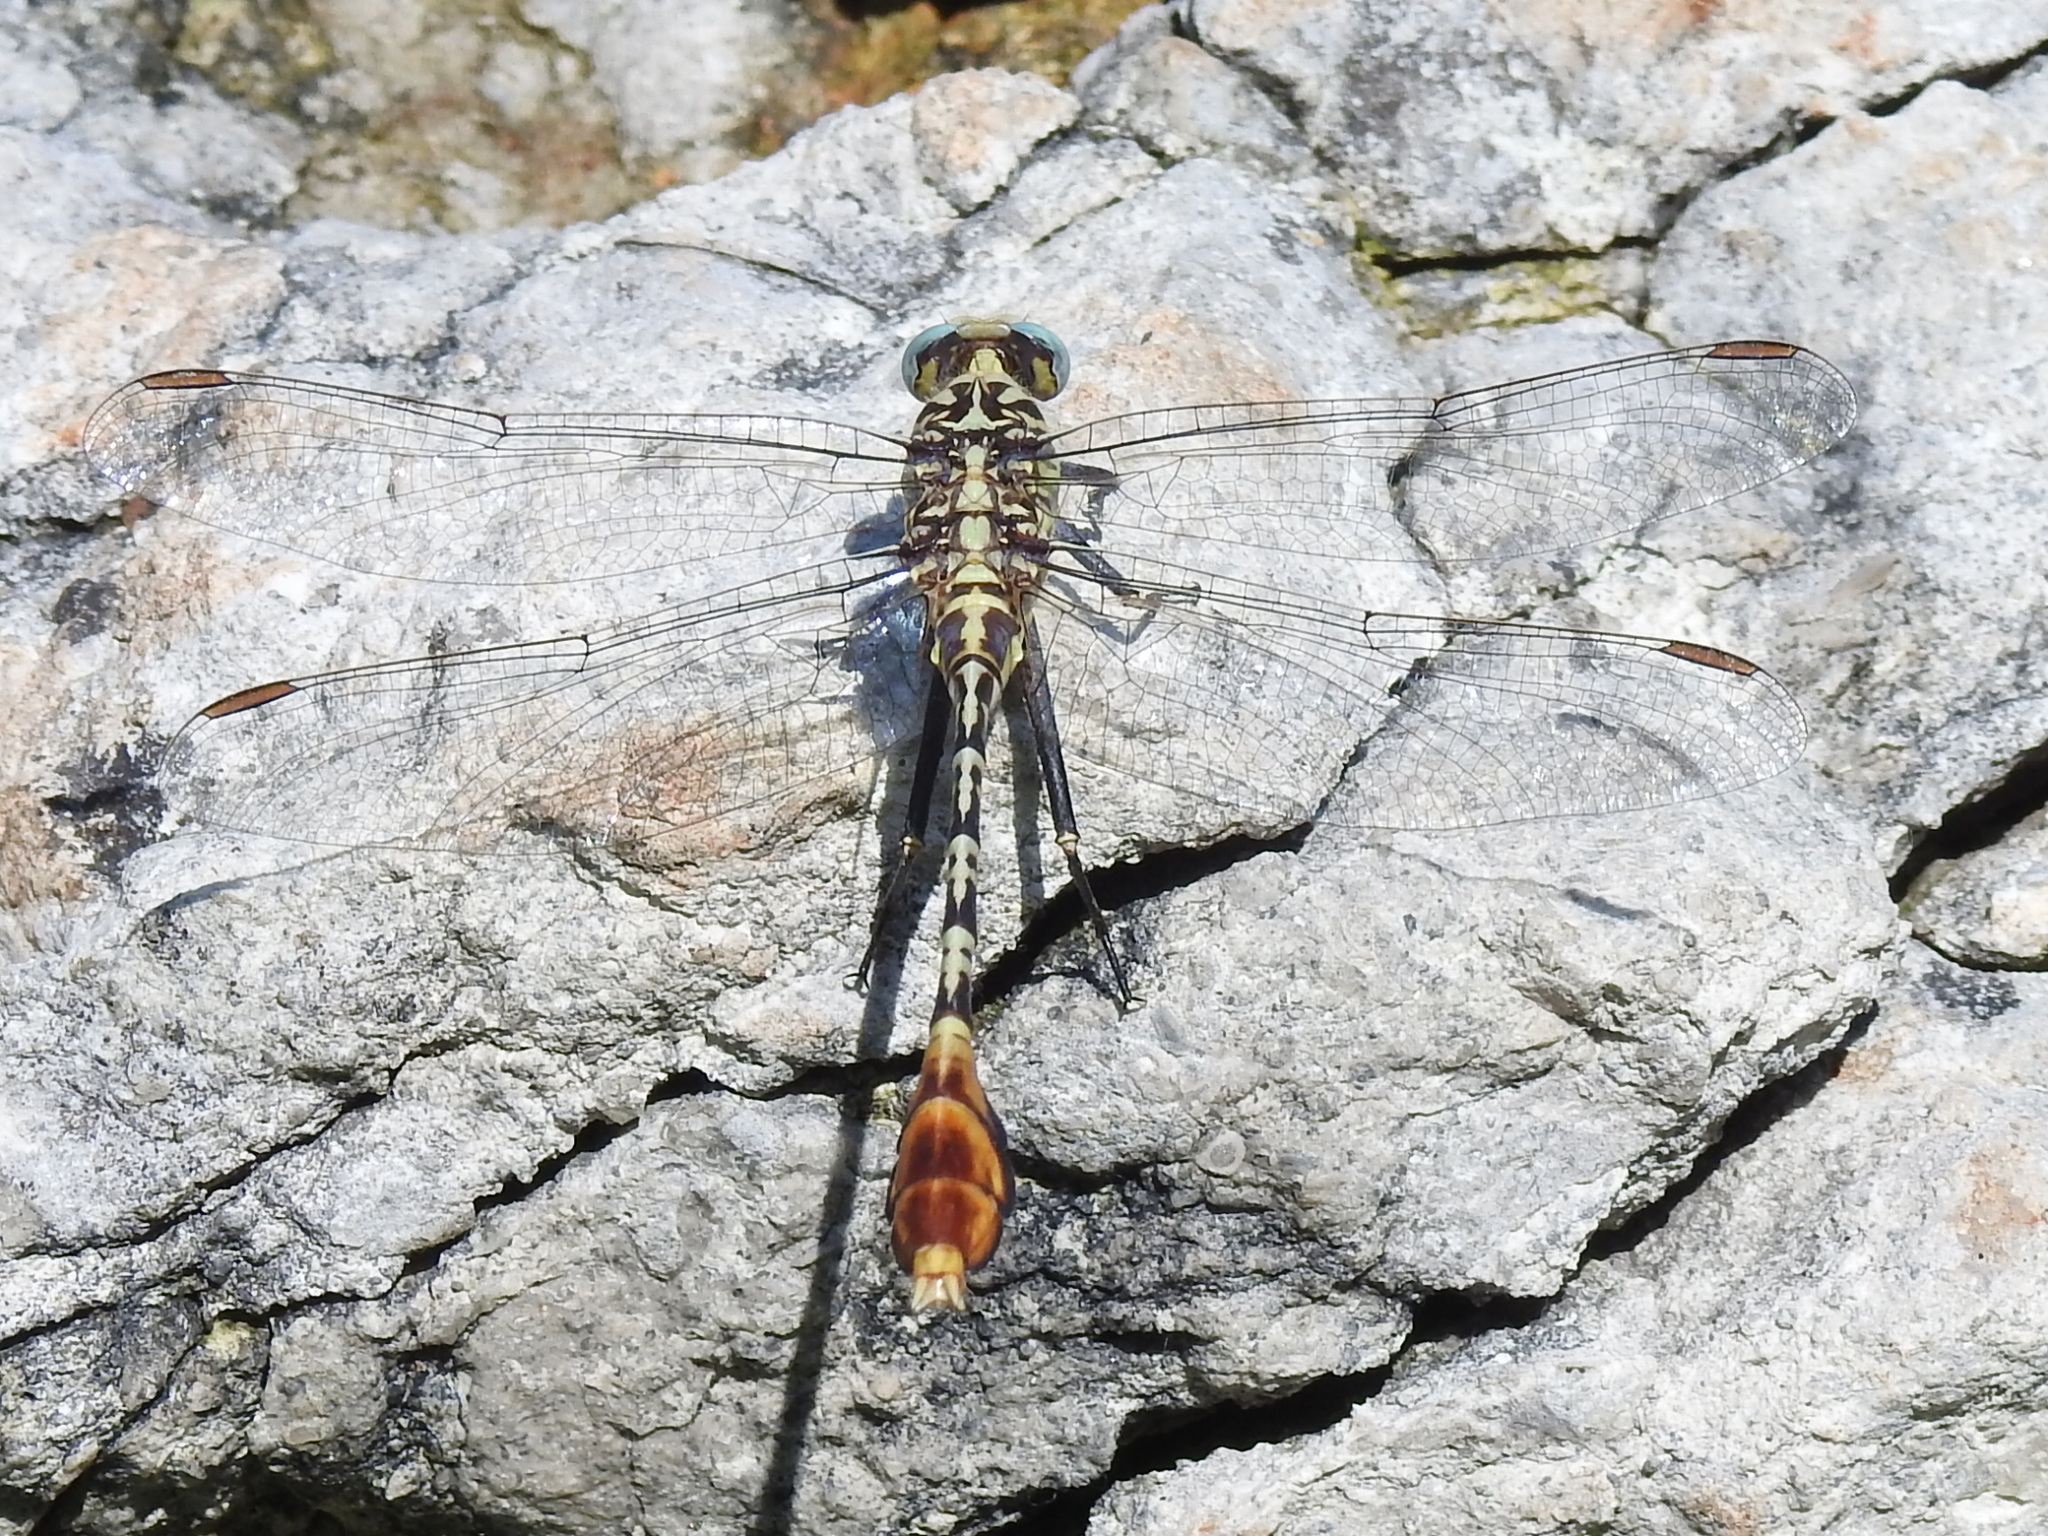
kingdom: Animalia
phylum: Arthropoda
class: Insecta
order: Odonata
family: Gomphidae
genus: Dromogomphus
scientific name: Dromogomphus spoliatus
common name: Flag-tailed spinyleg
